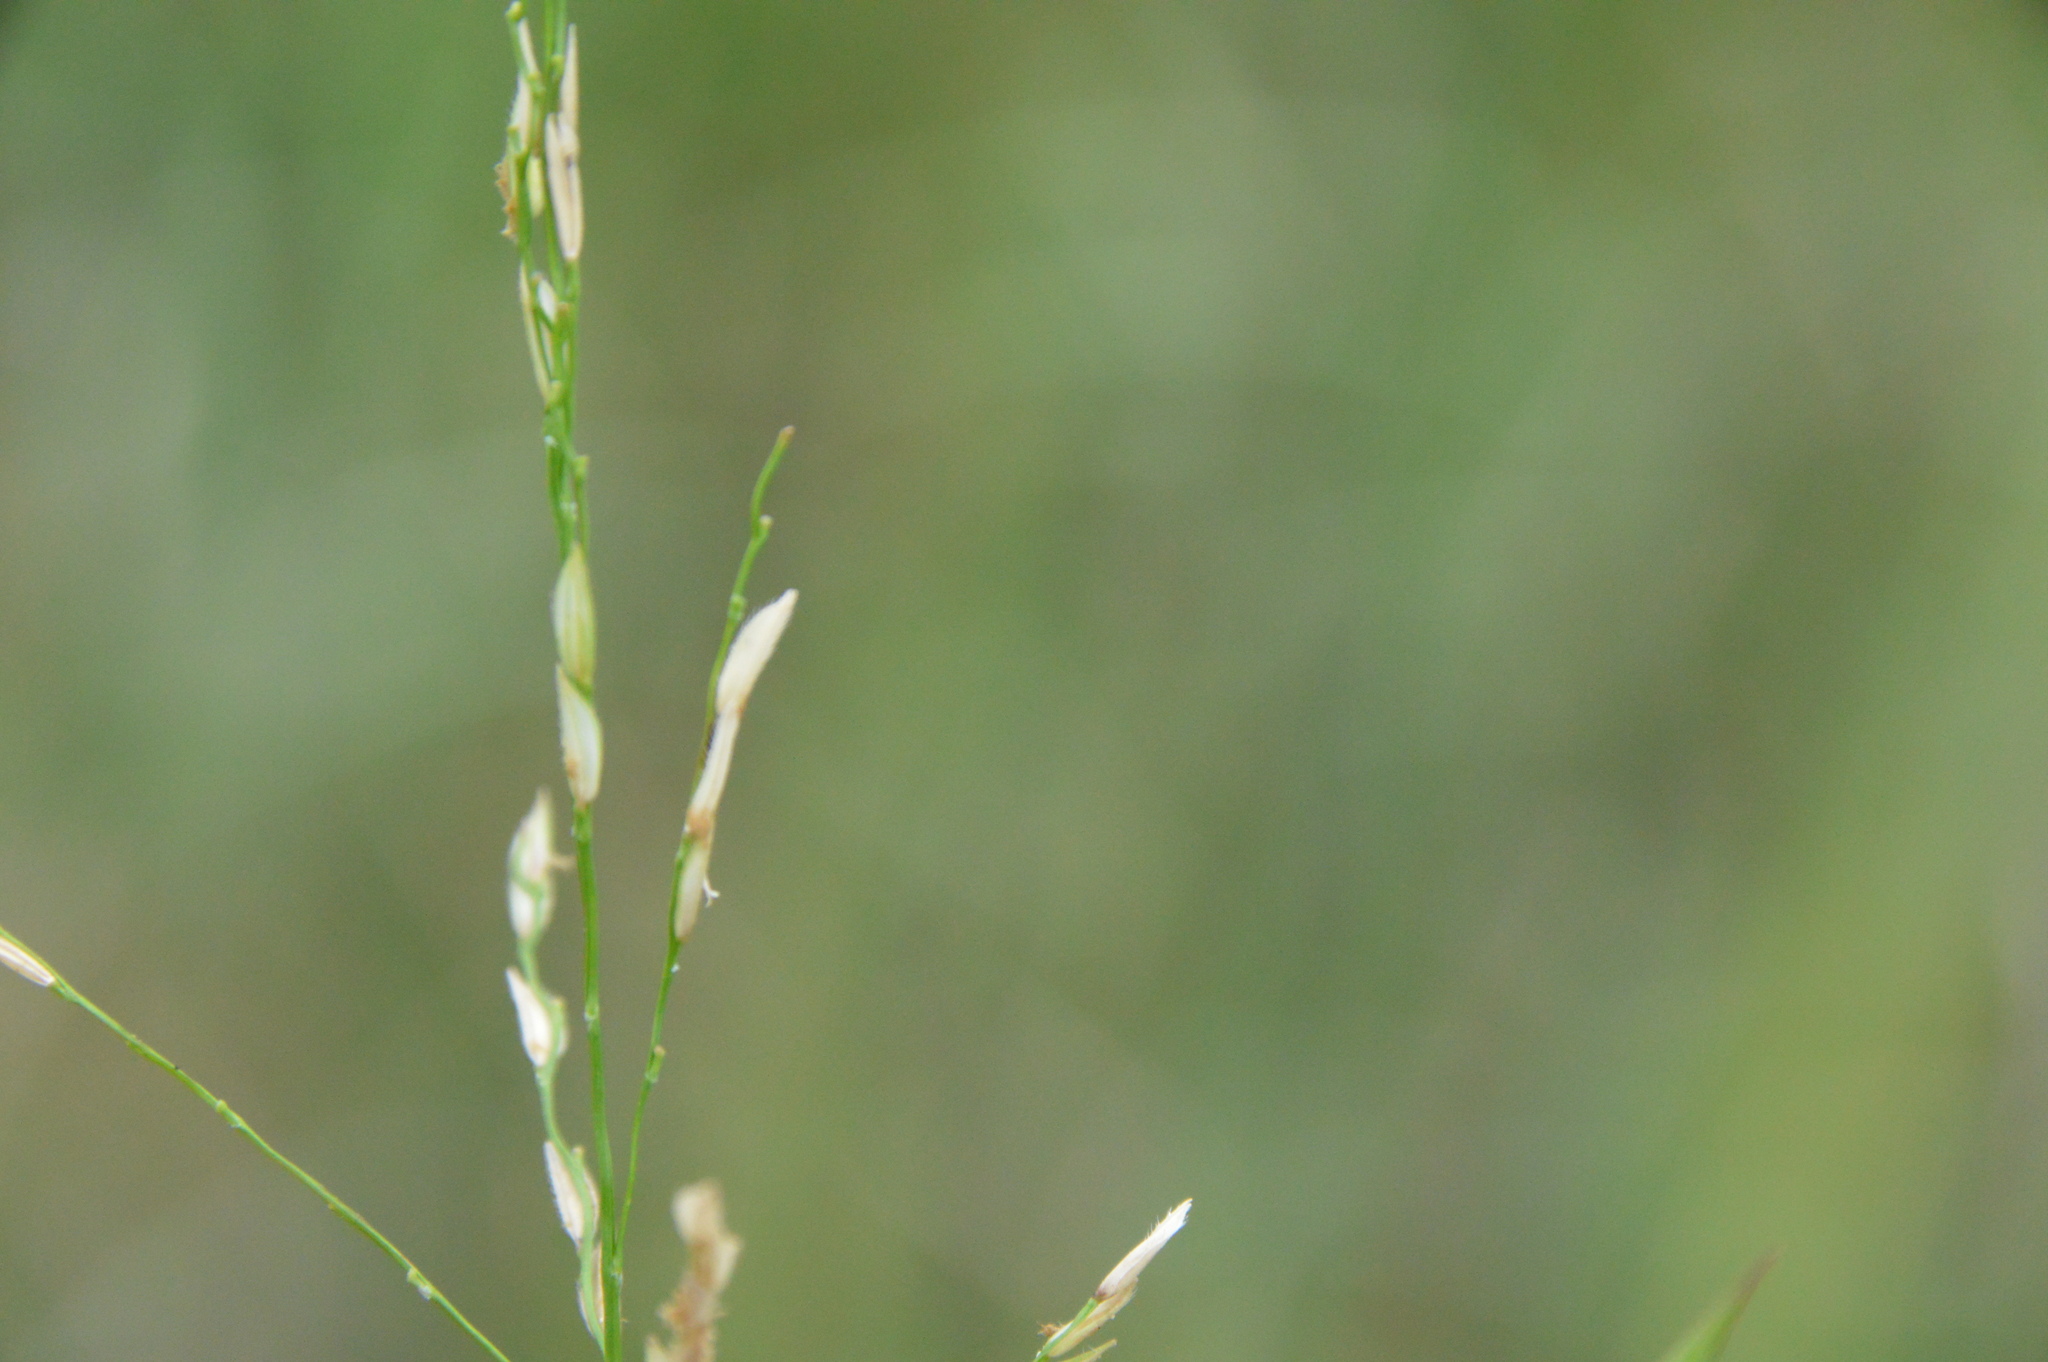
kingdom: Plantae
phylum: Tracheophyta
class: Liliopsida
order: Poales
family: Poaceae
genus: Leersia
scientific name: Leersia hexandra
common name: Southern cut grass
